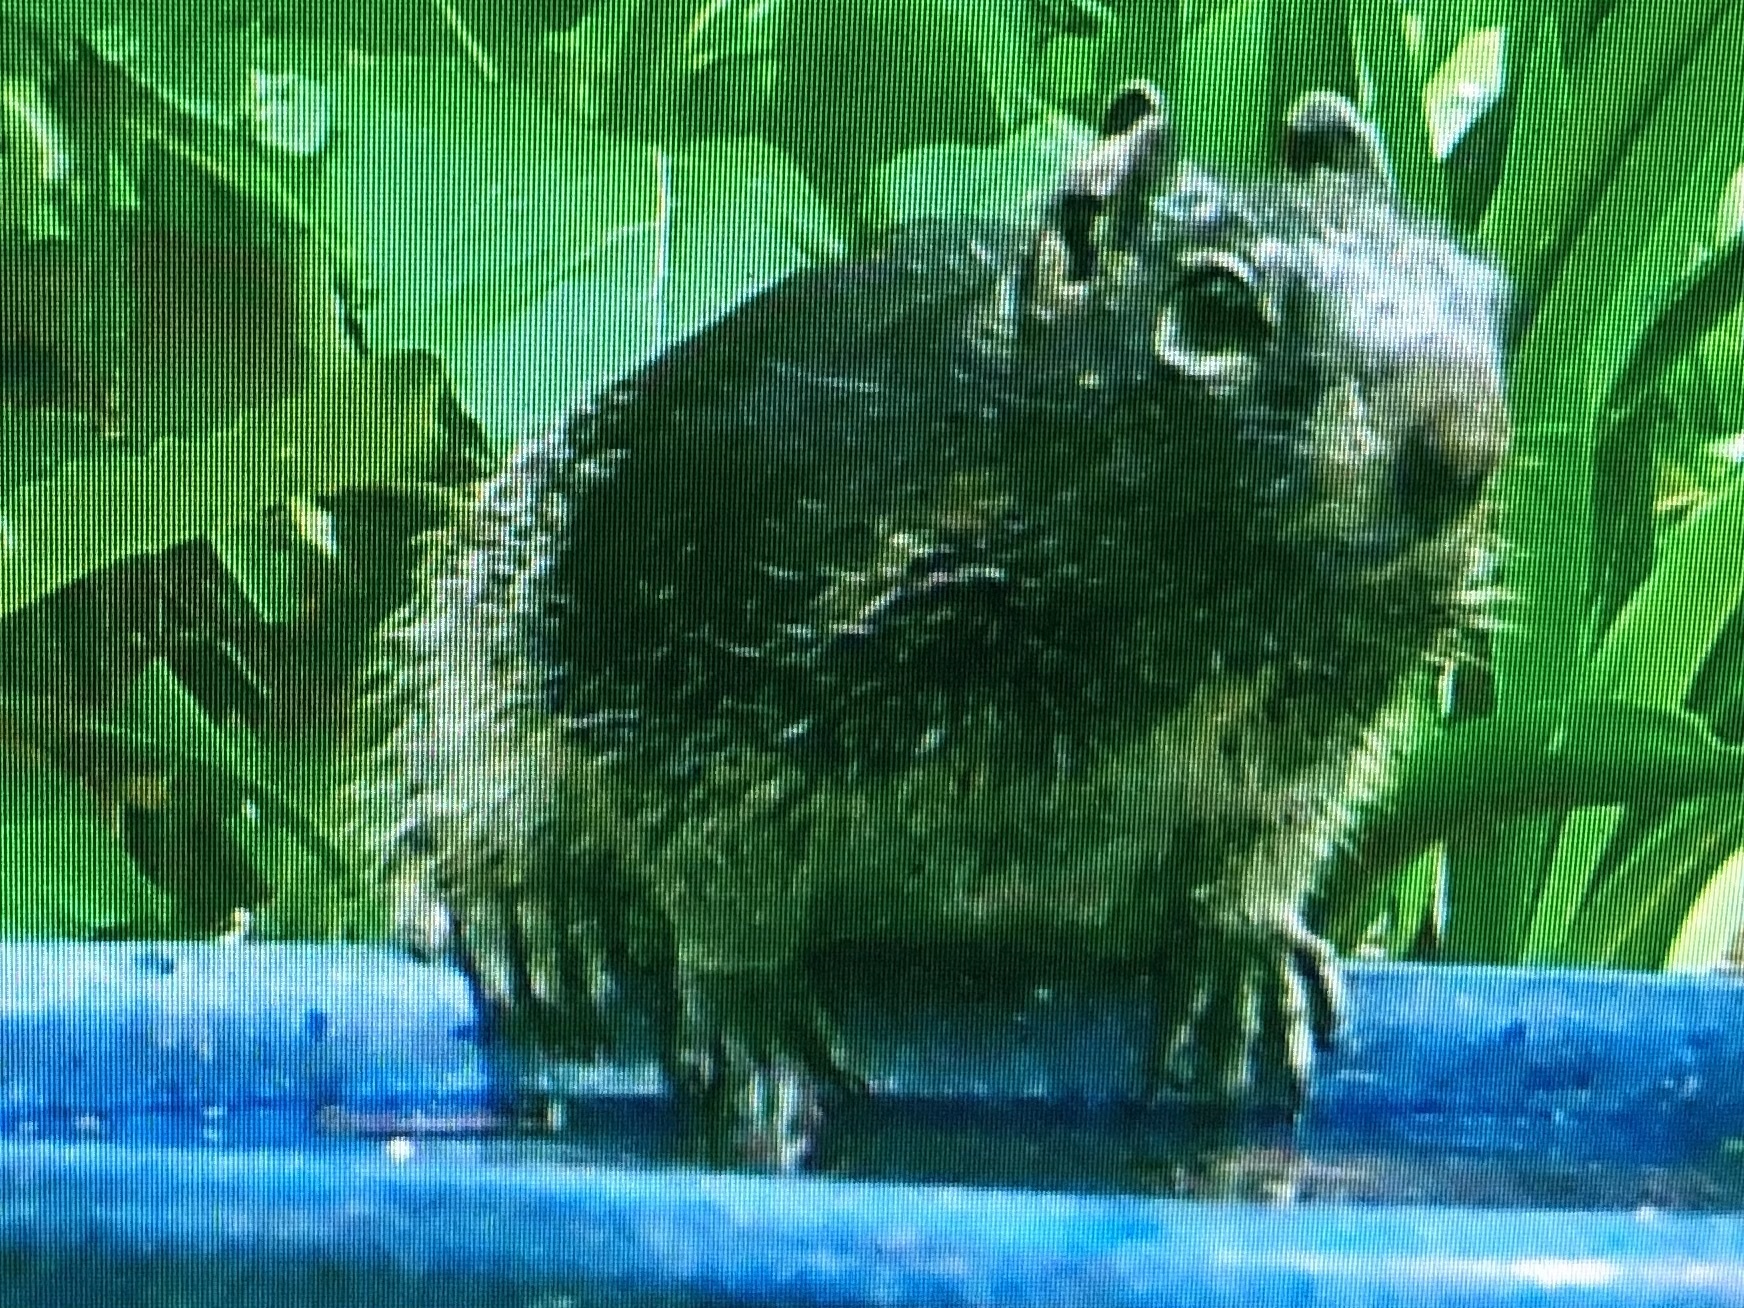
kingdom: Animalia
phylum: Chordata
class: Mammalia
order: Rodentia
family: Sciuridae
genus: Otospermophilus
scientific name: Otospermophilus variegatus
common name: Rock squirrel
